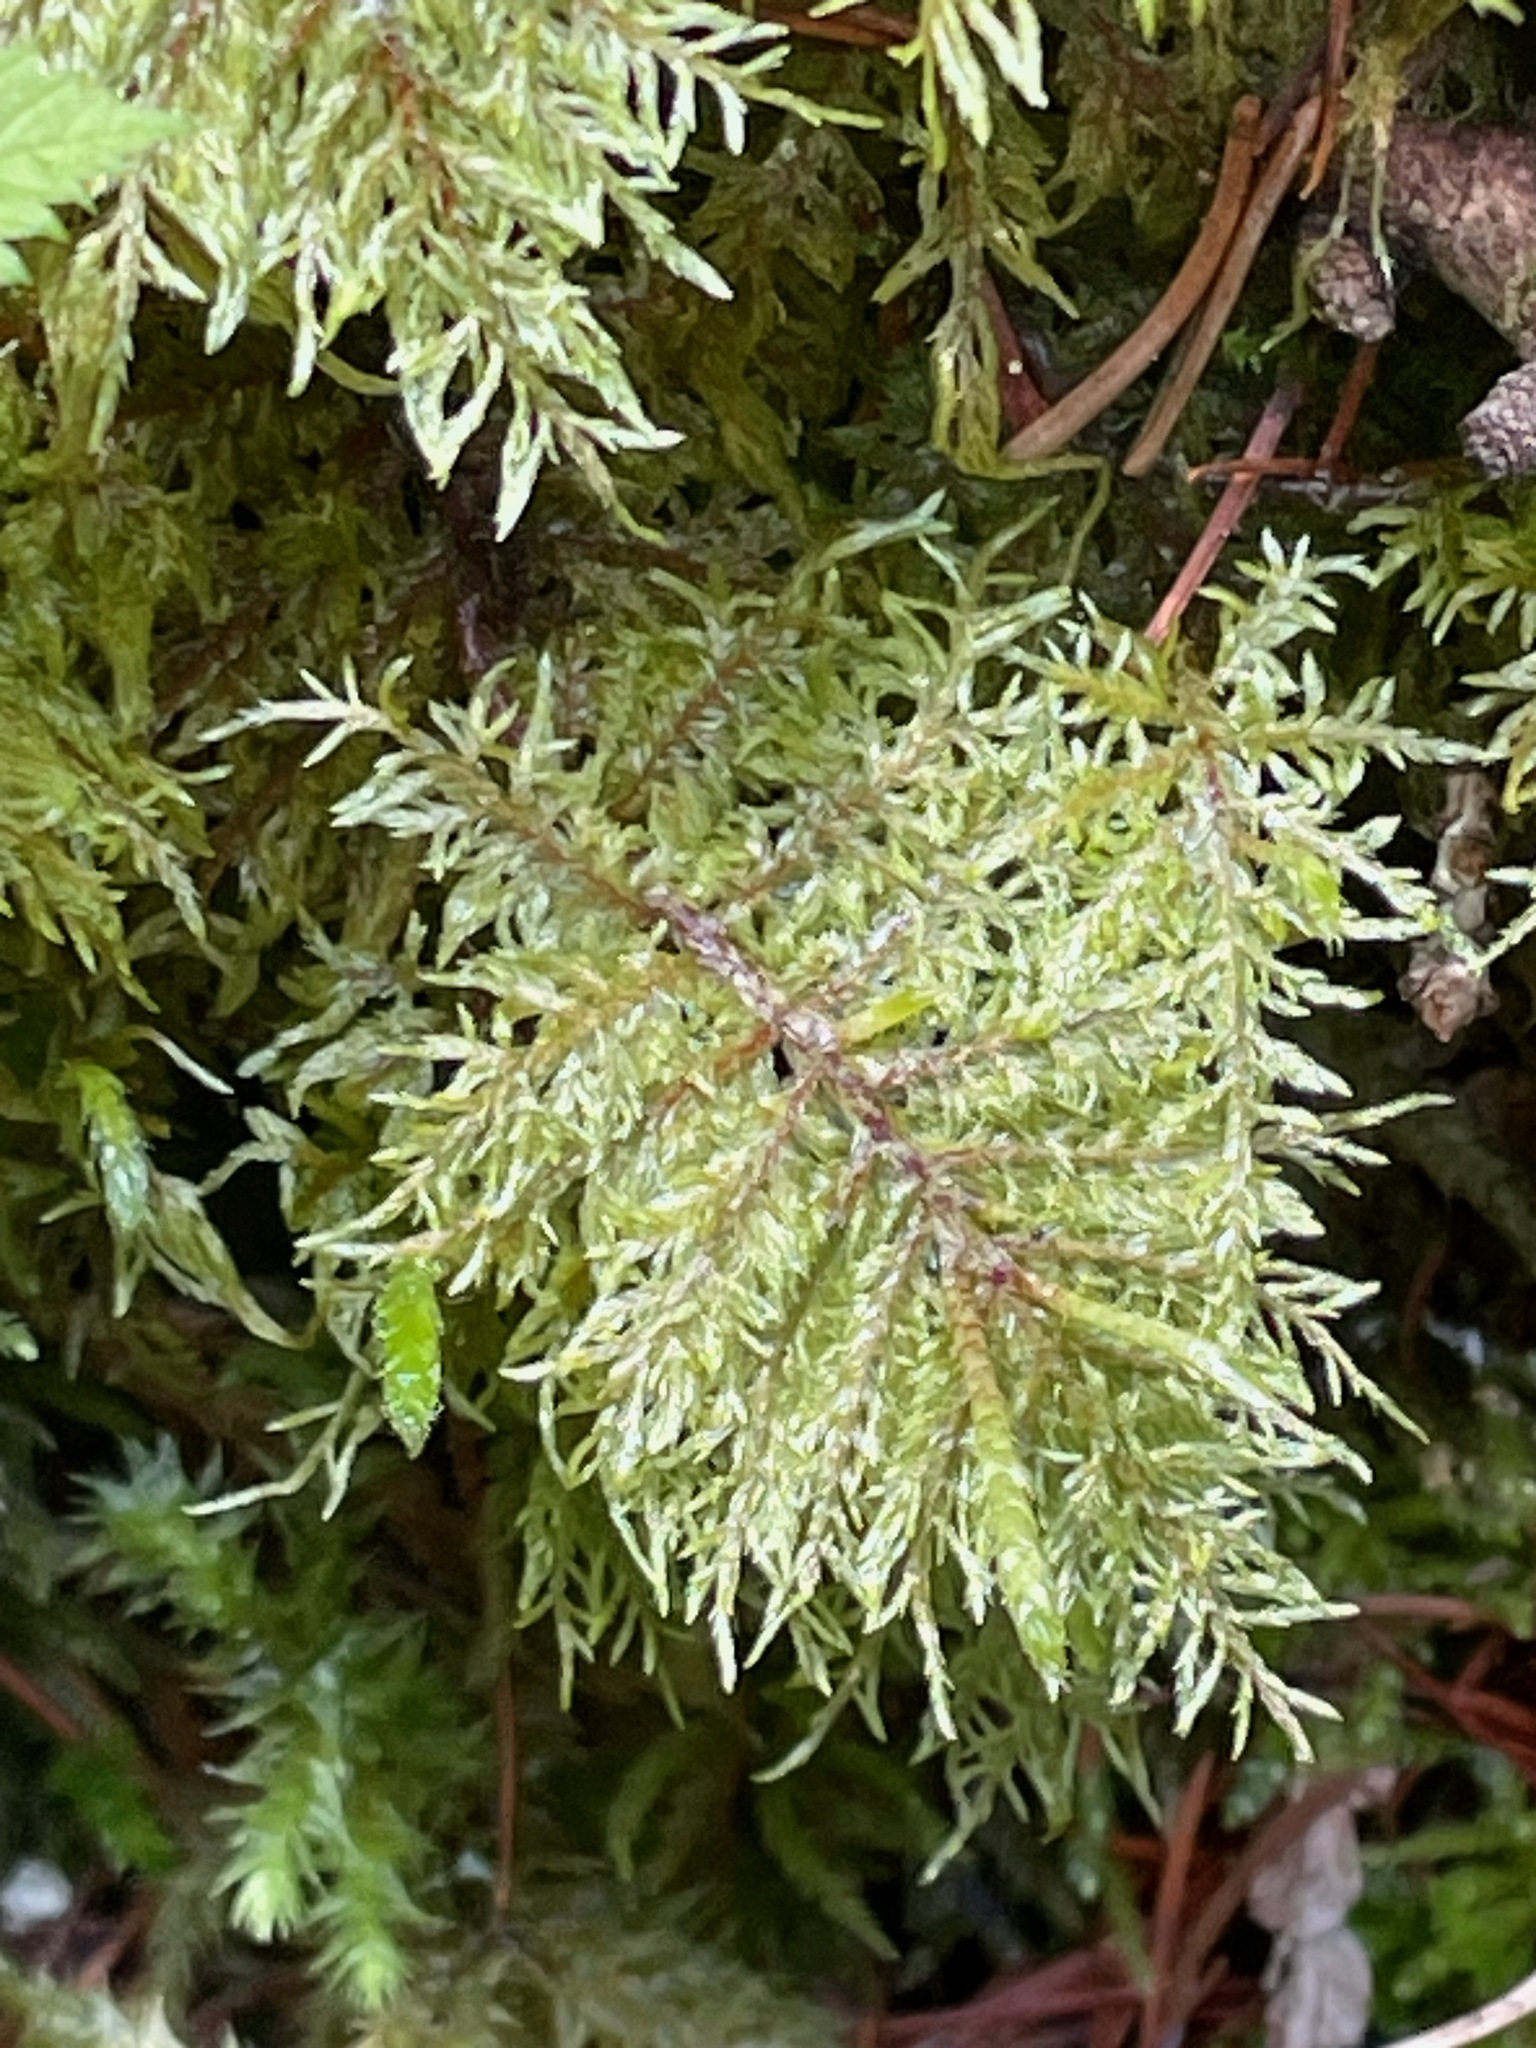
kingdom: Plantae
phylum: Bryophyta
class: Bryopsida
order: Hypnales
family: Hylocomiaceae
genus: Hylocomium
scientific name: Hylocomium splendens
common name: Stairstep moss
